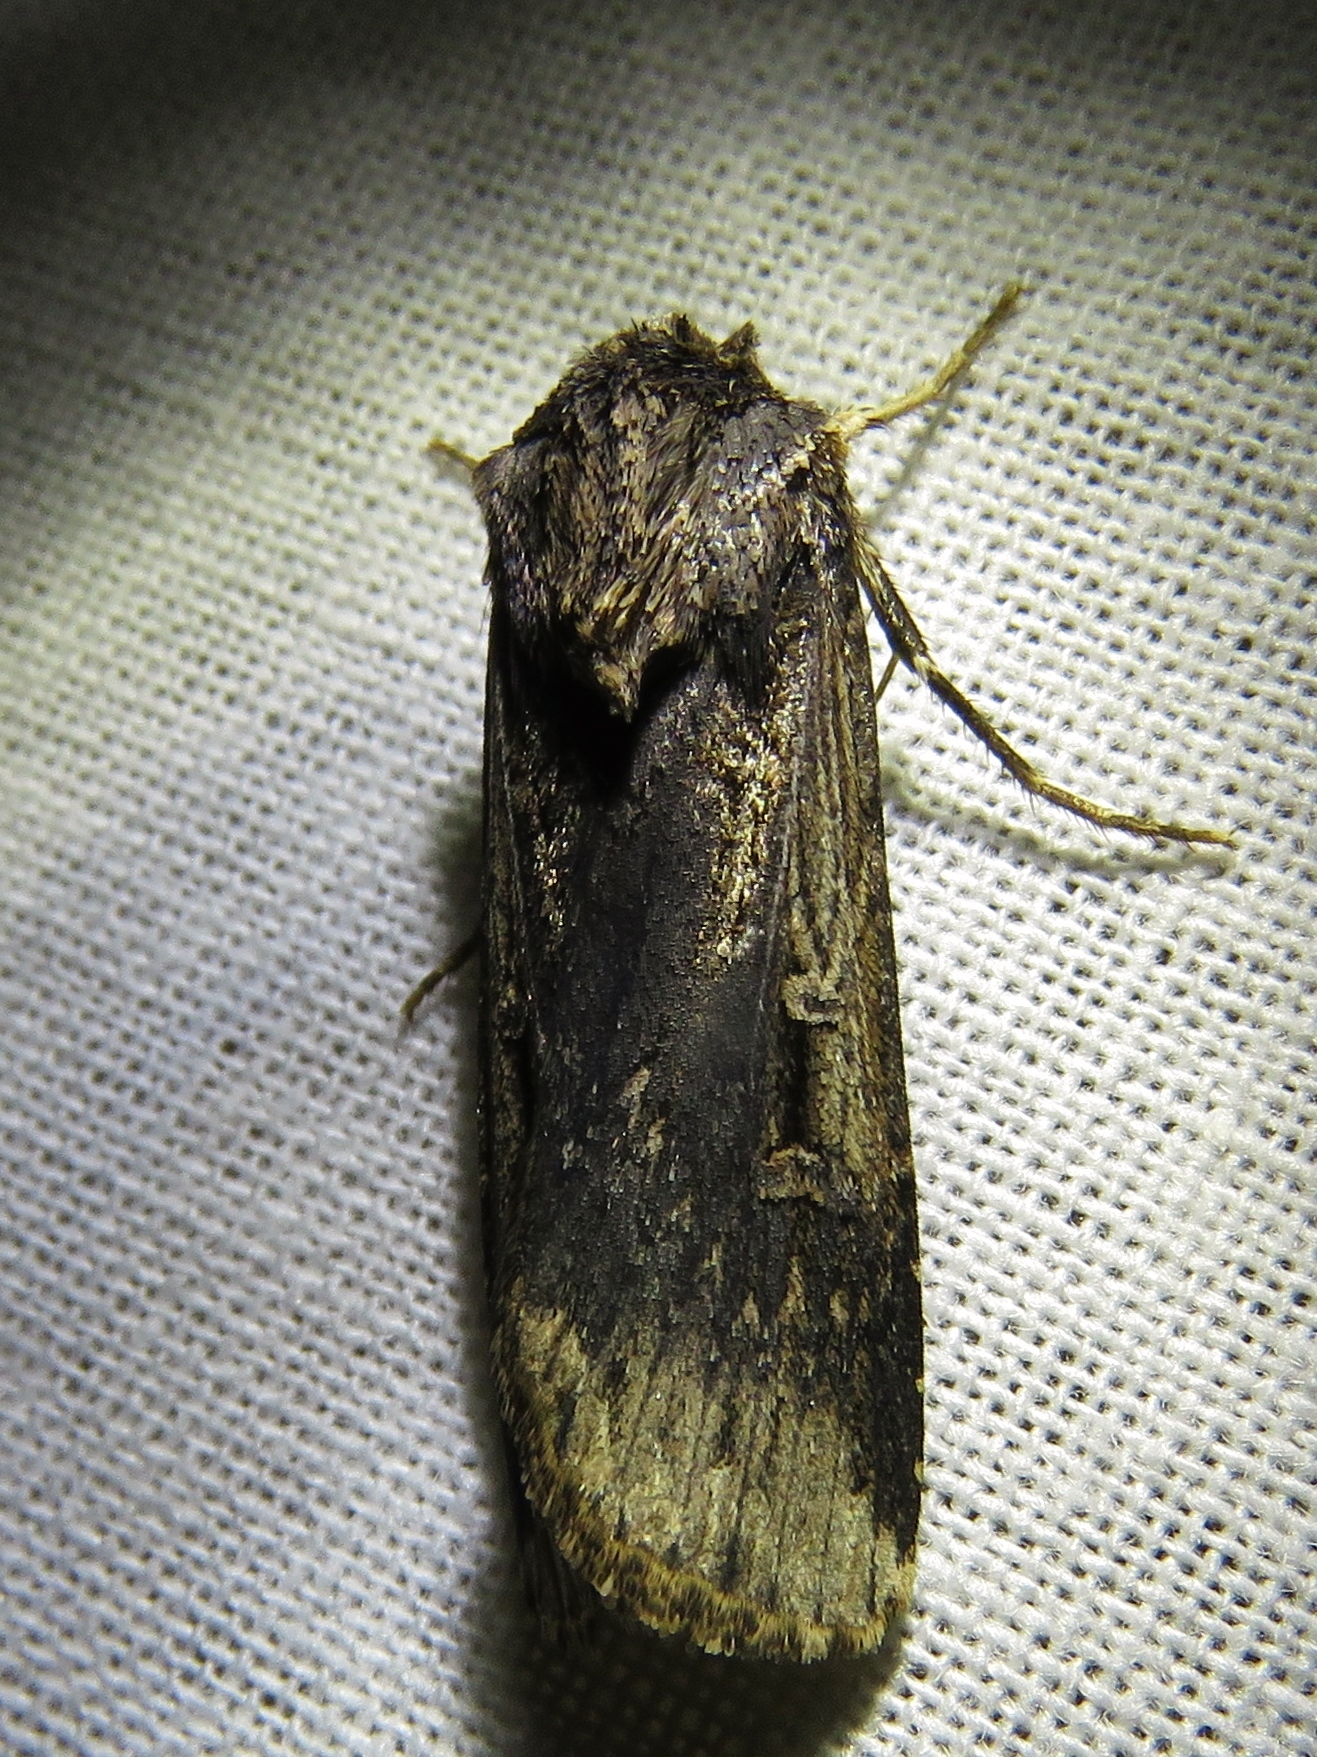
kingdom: Animalia
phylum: Arthropoda
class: Insecta
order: Lepidoptera
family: Noctuidae
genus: Feltia
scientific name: Feltia subterranea
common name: Granulate cutworm
